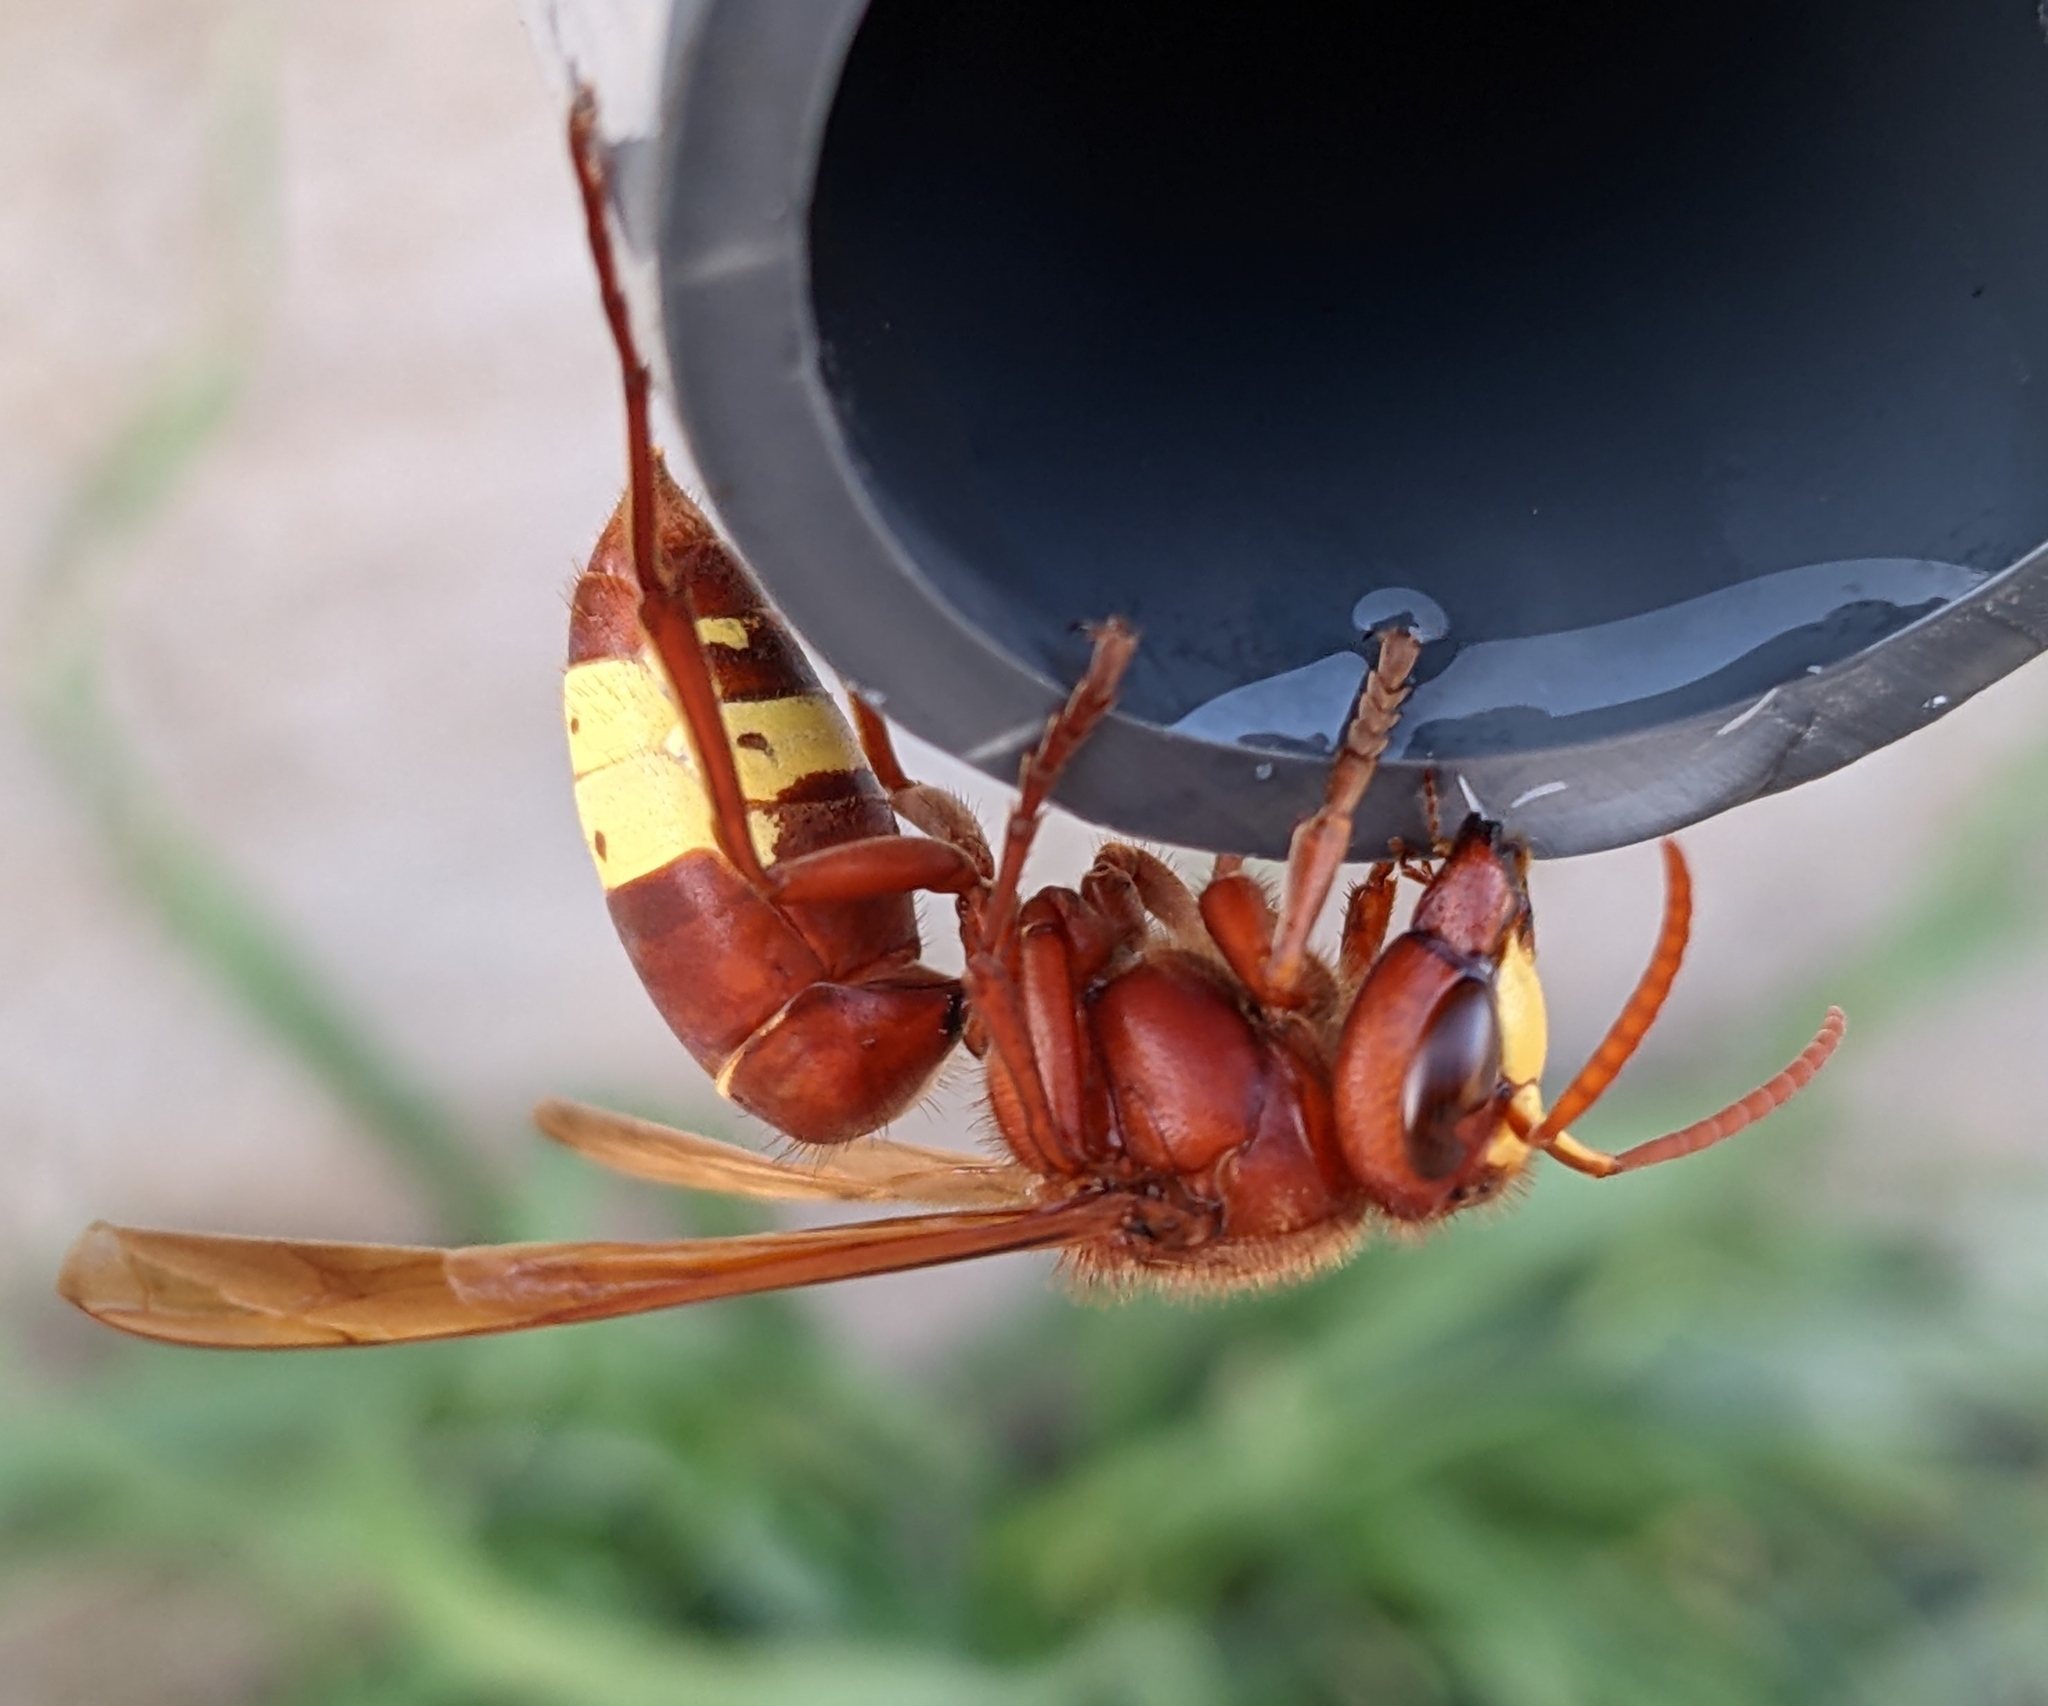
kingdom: Animalia
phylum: Arthropoda
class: Insecta
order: Hymenoptera
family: Vespidae
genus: Vespa
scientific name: Vespa orientalis
